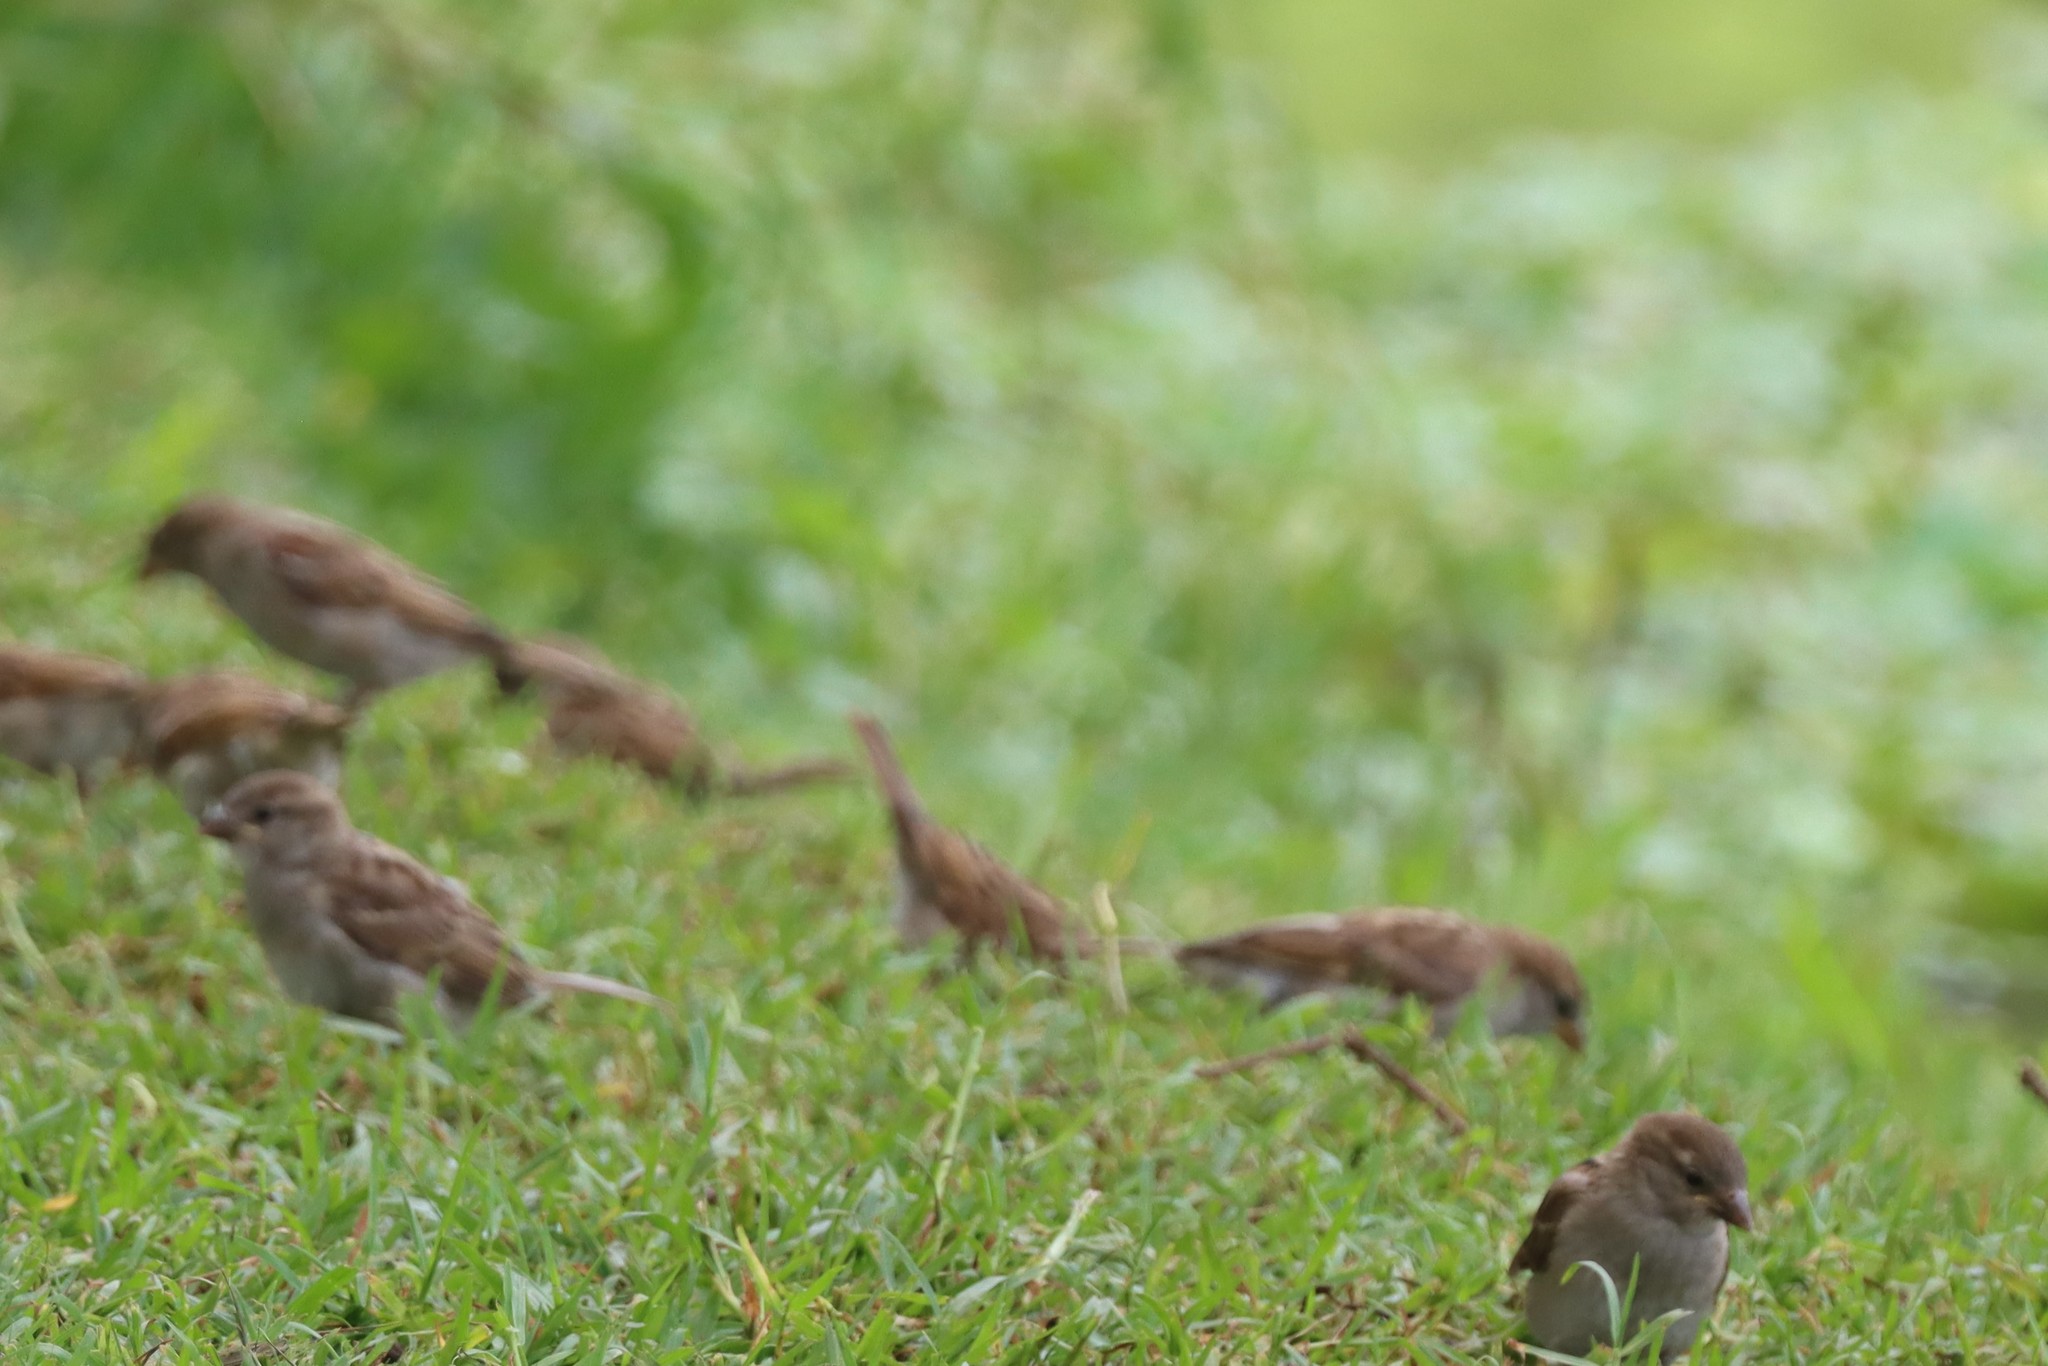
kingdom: Animalia
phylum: Chordata
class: Aves
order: Passeriformes
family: Passeridae
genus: Passer
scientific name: Passer domesticus
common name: House sparrow
